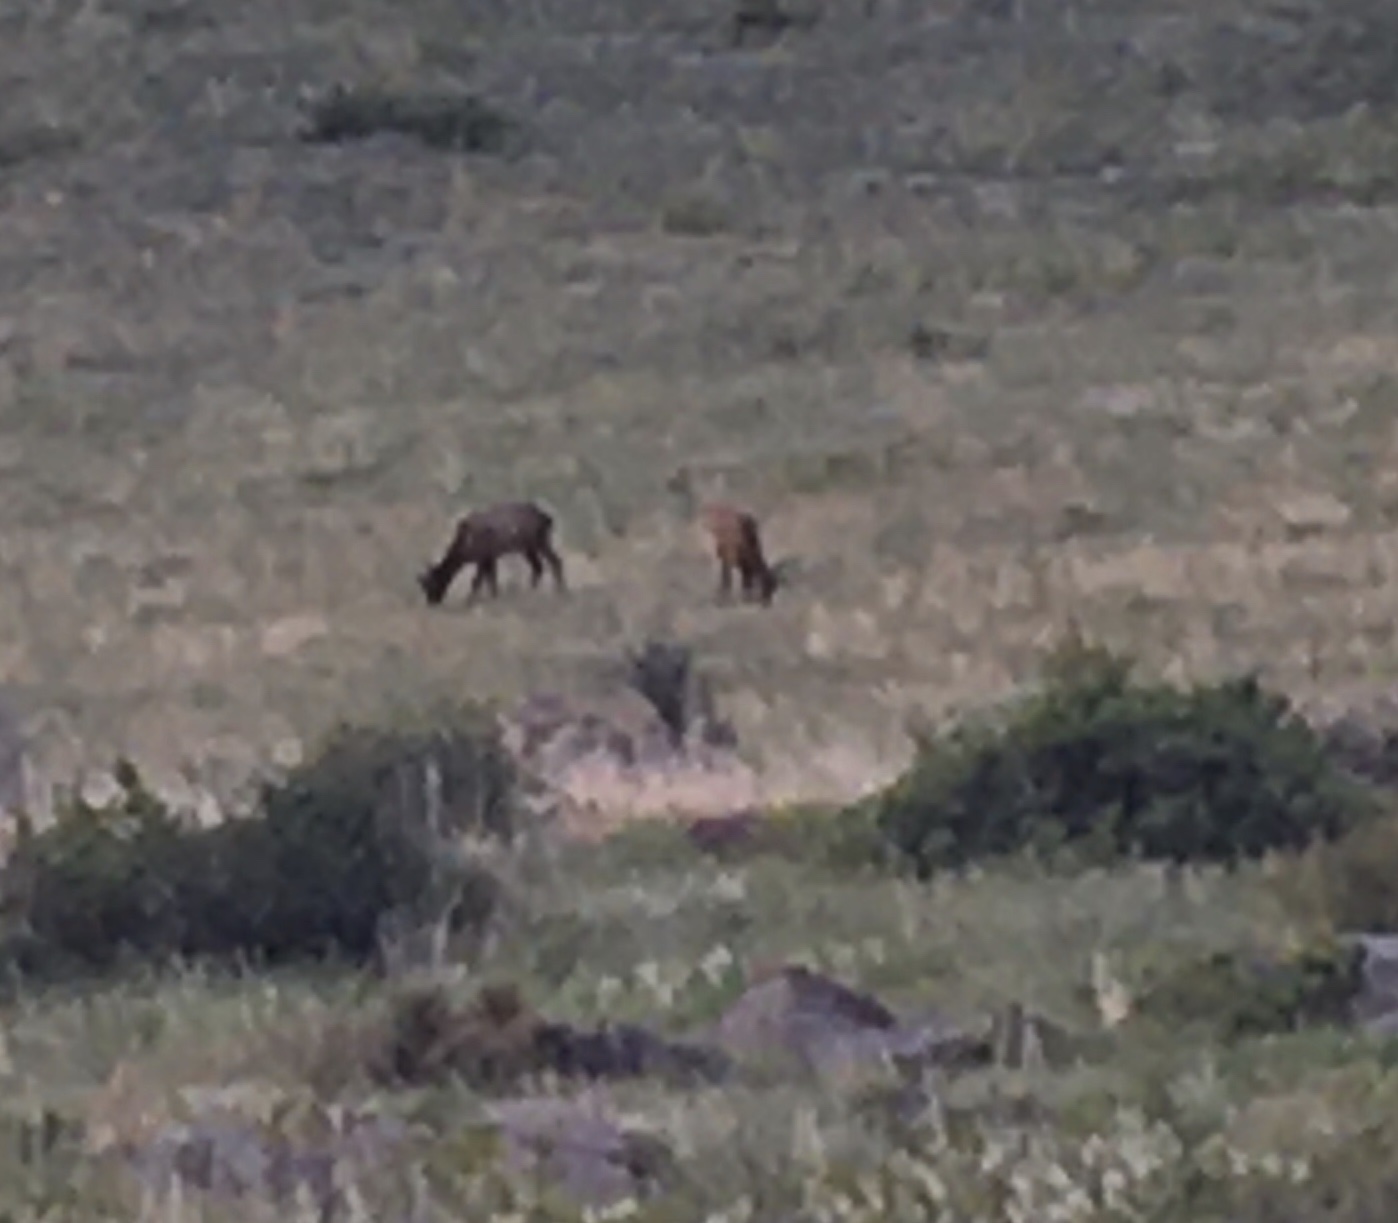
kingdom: Animalia
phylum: Chordata
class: Mammalia
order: Artiodactyla
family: Cervidae
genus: Cervus
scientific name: Cervus elaphus
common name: Red deer
